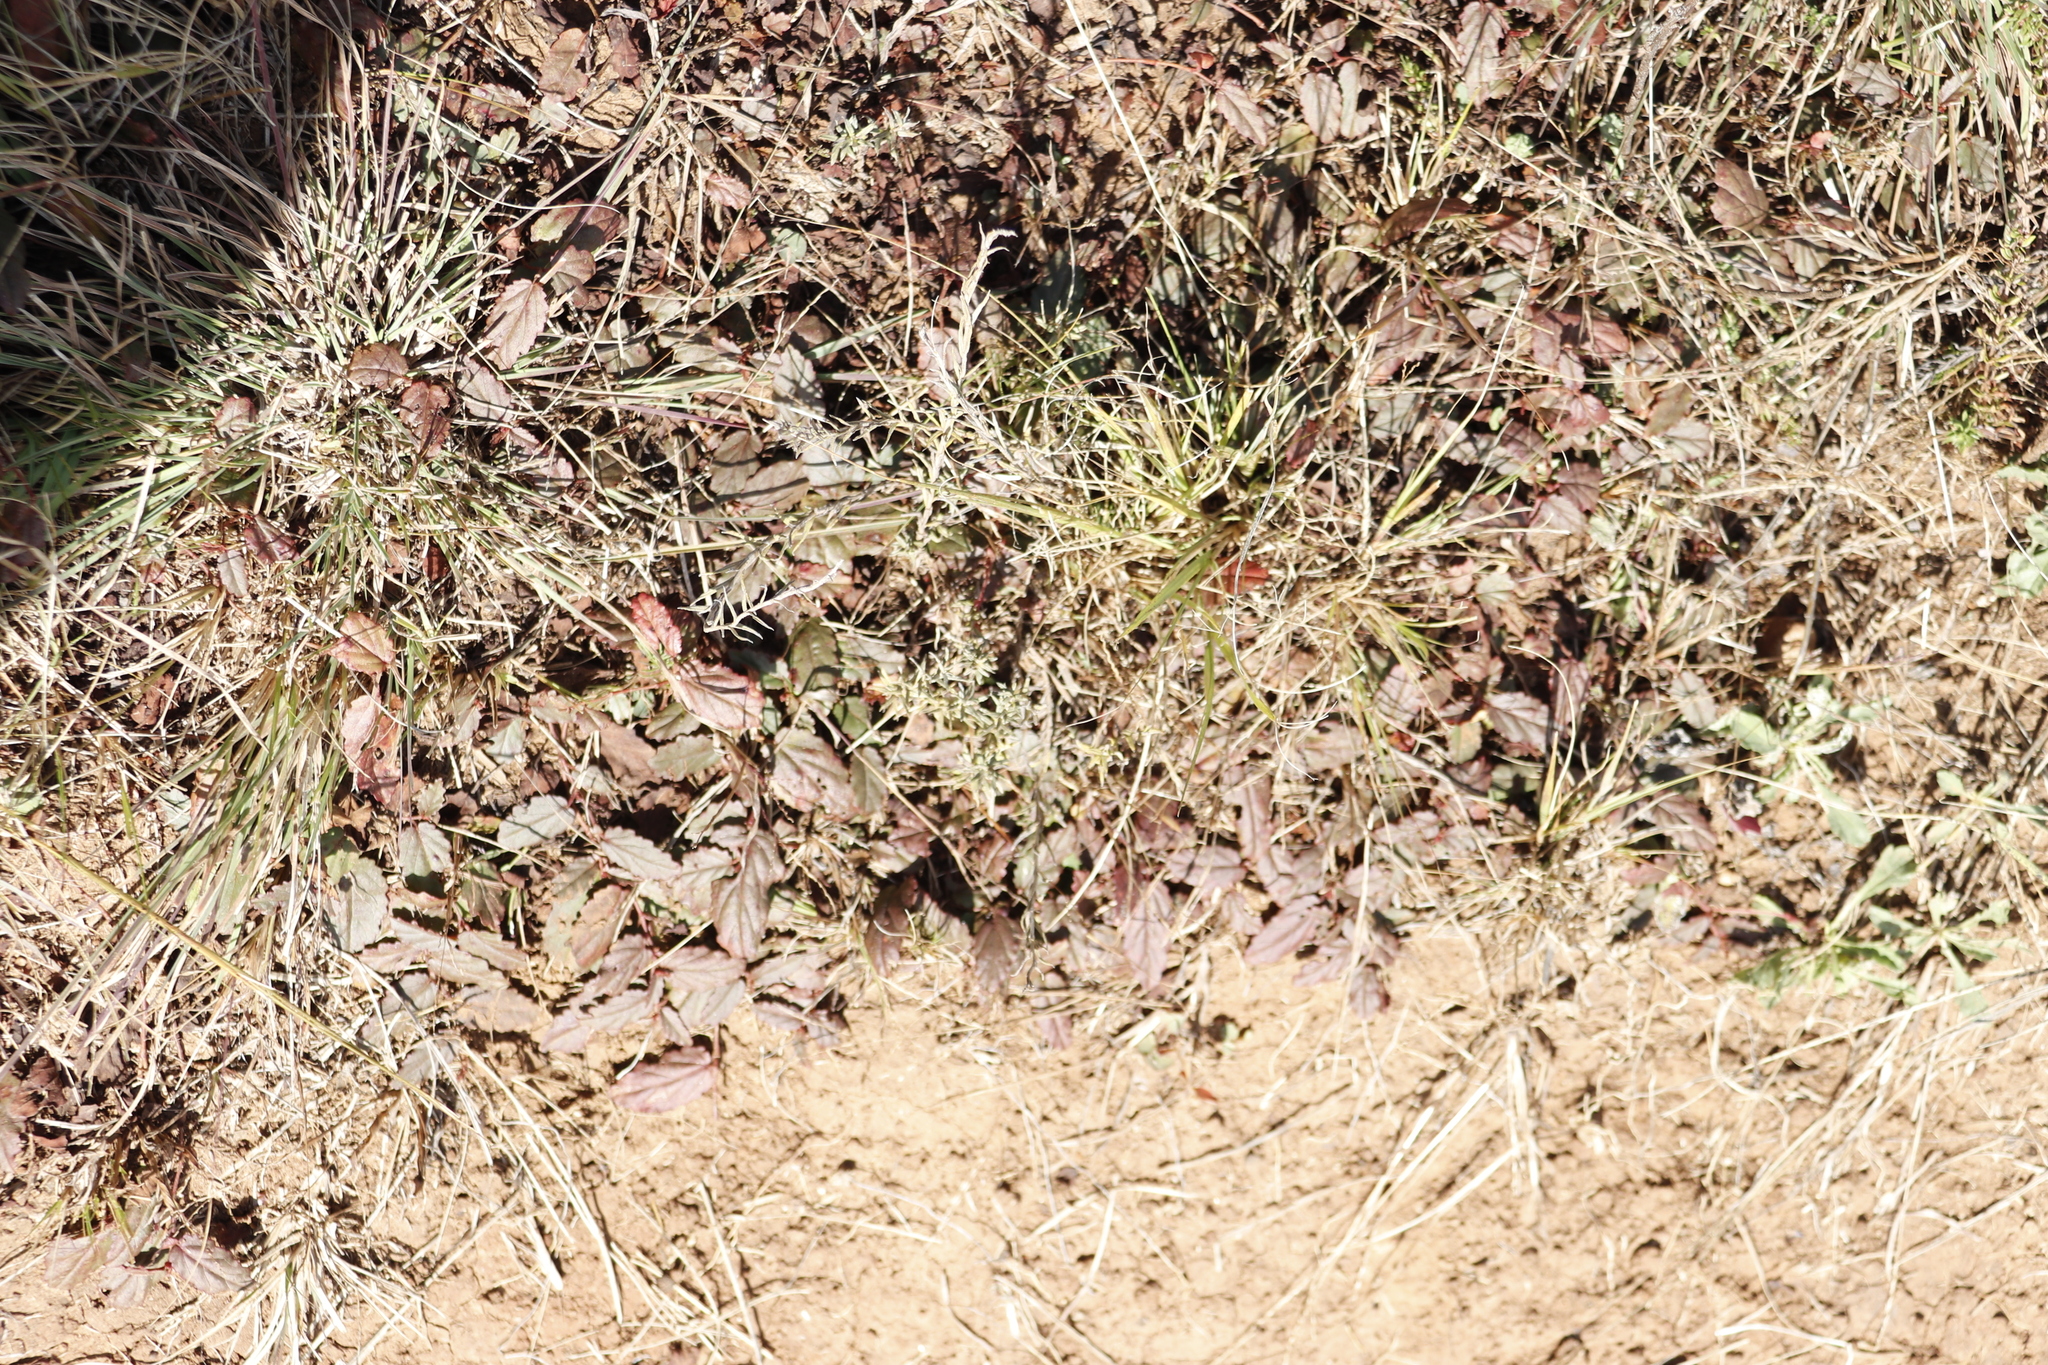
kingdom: Plantae
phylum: Tracheophyta
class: Magnoliopsida
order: Malvales
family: Malvaceae
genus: Hermannia
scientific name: Hermannia depressa
